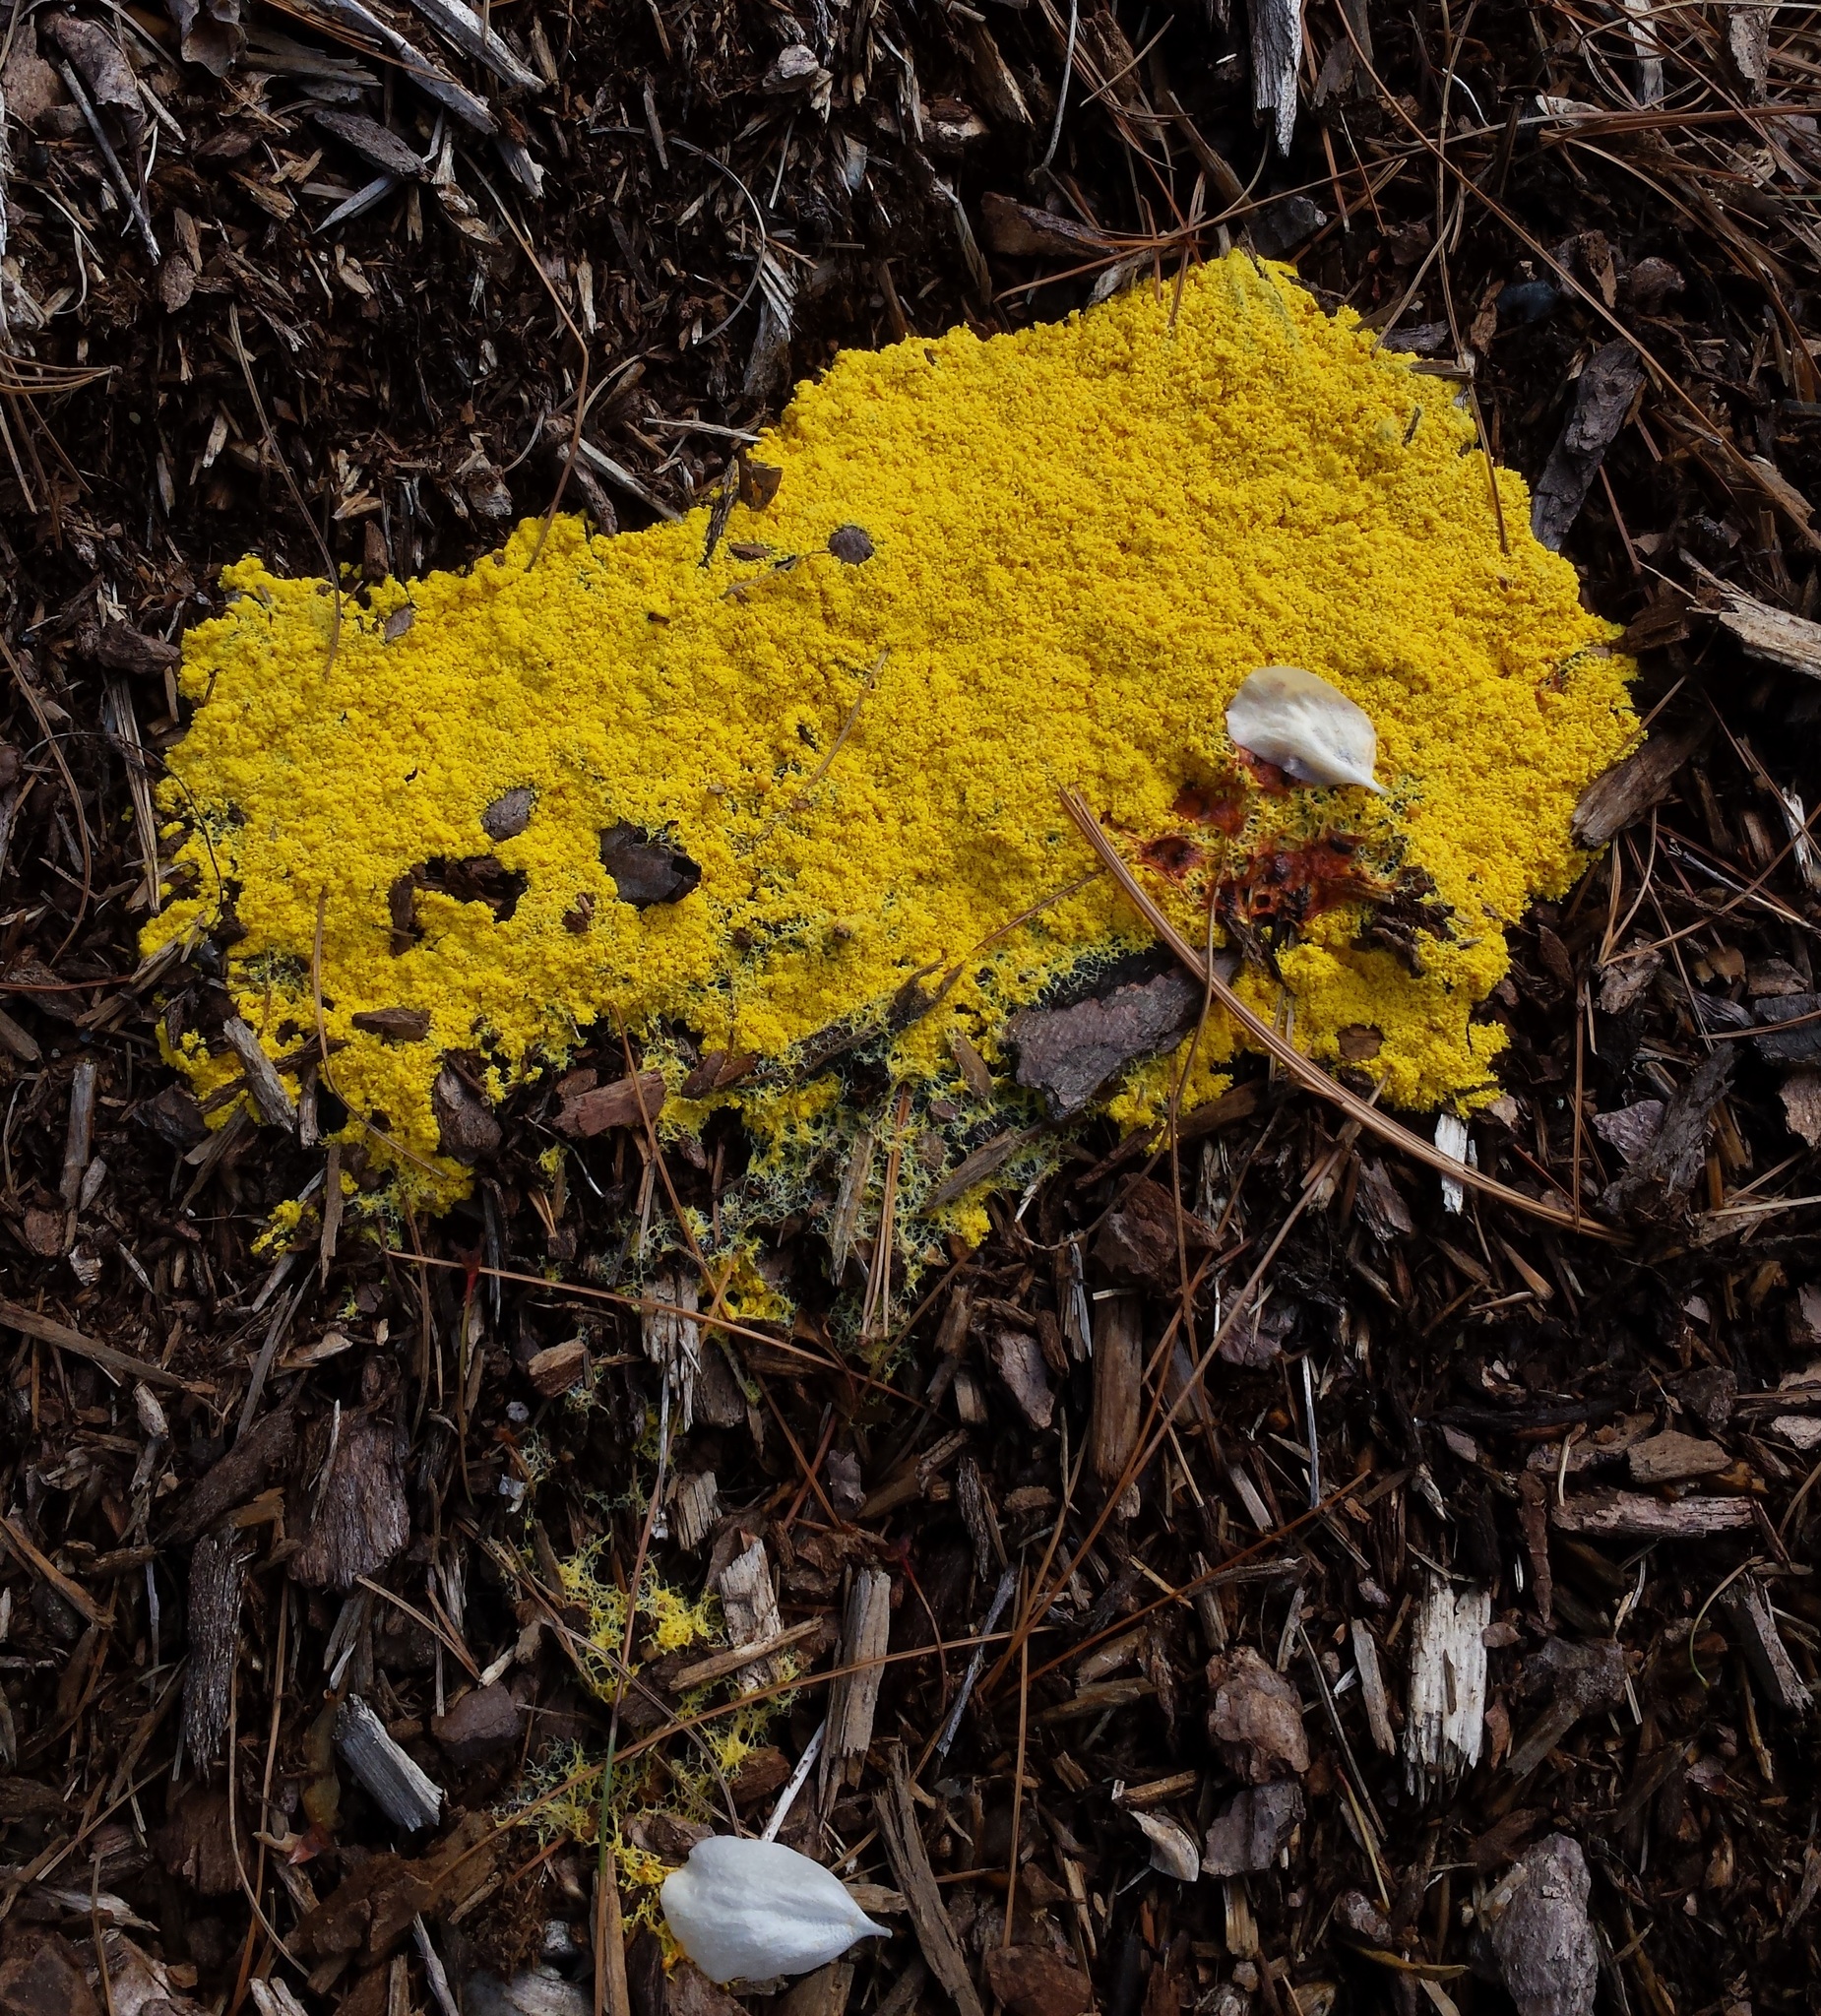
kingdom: Protozoa
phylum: Mycetozoa
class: Myxomycetes
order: Physarales
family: Physaraceae
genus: Fuligo
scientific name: Fuligo septica
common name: Dog vomit slime mold
